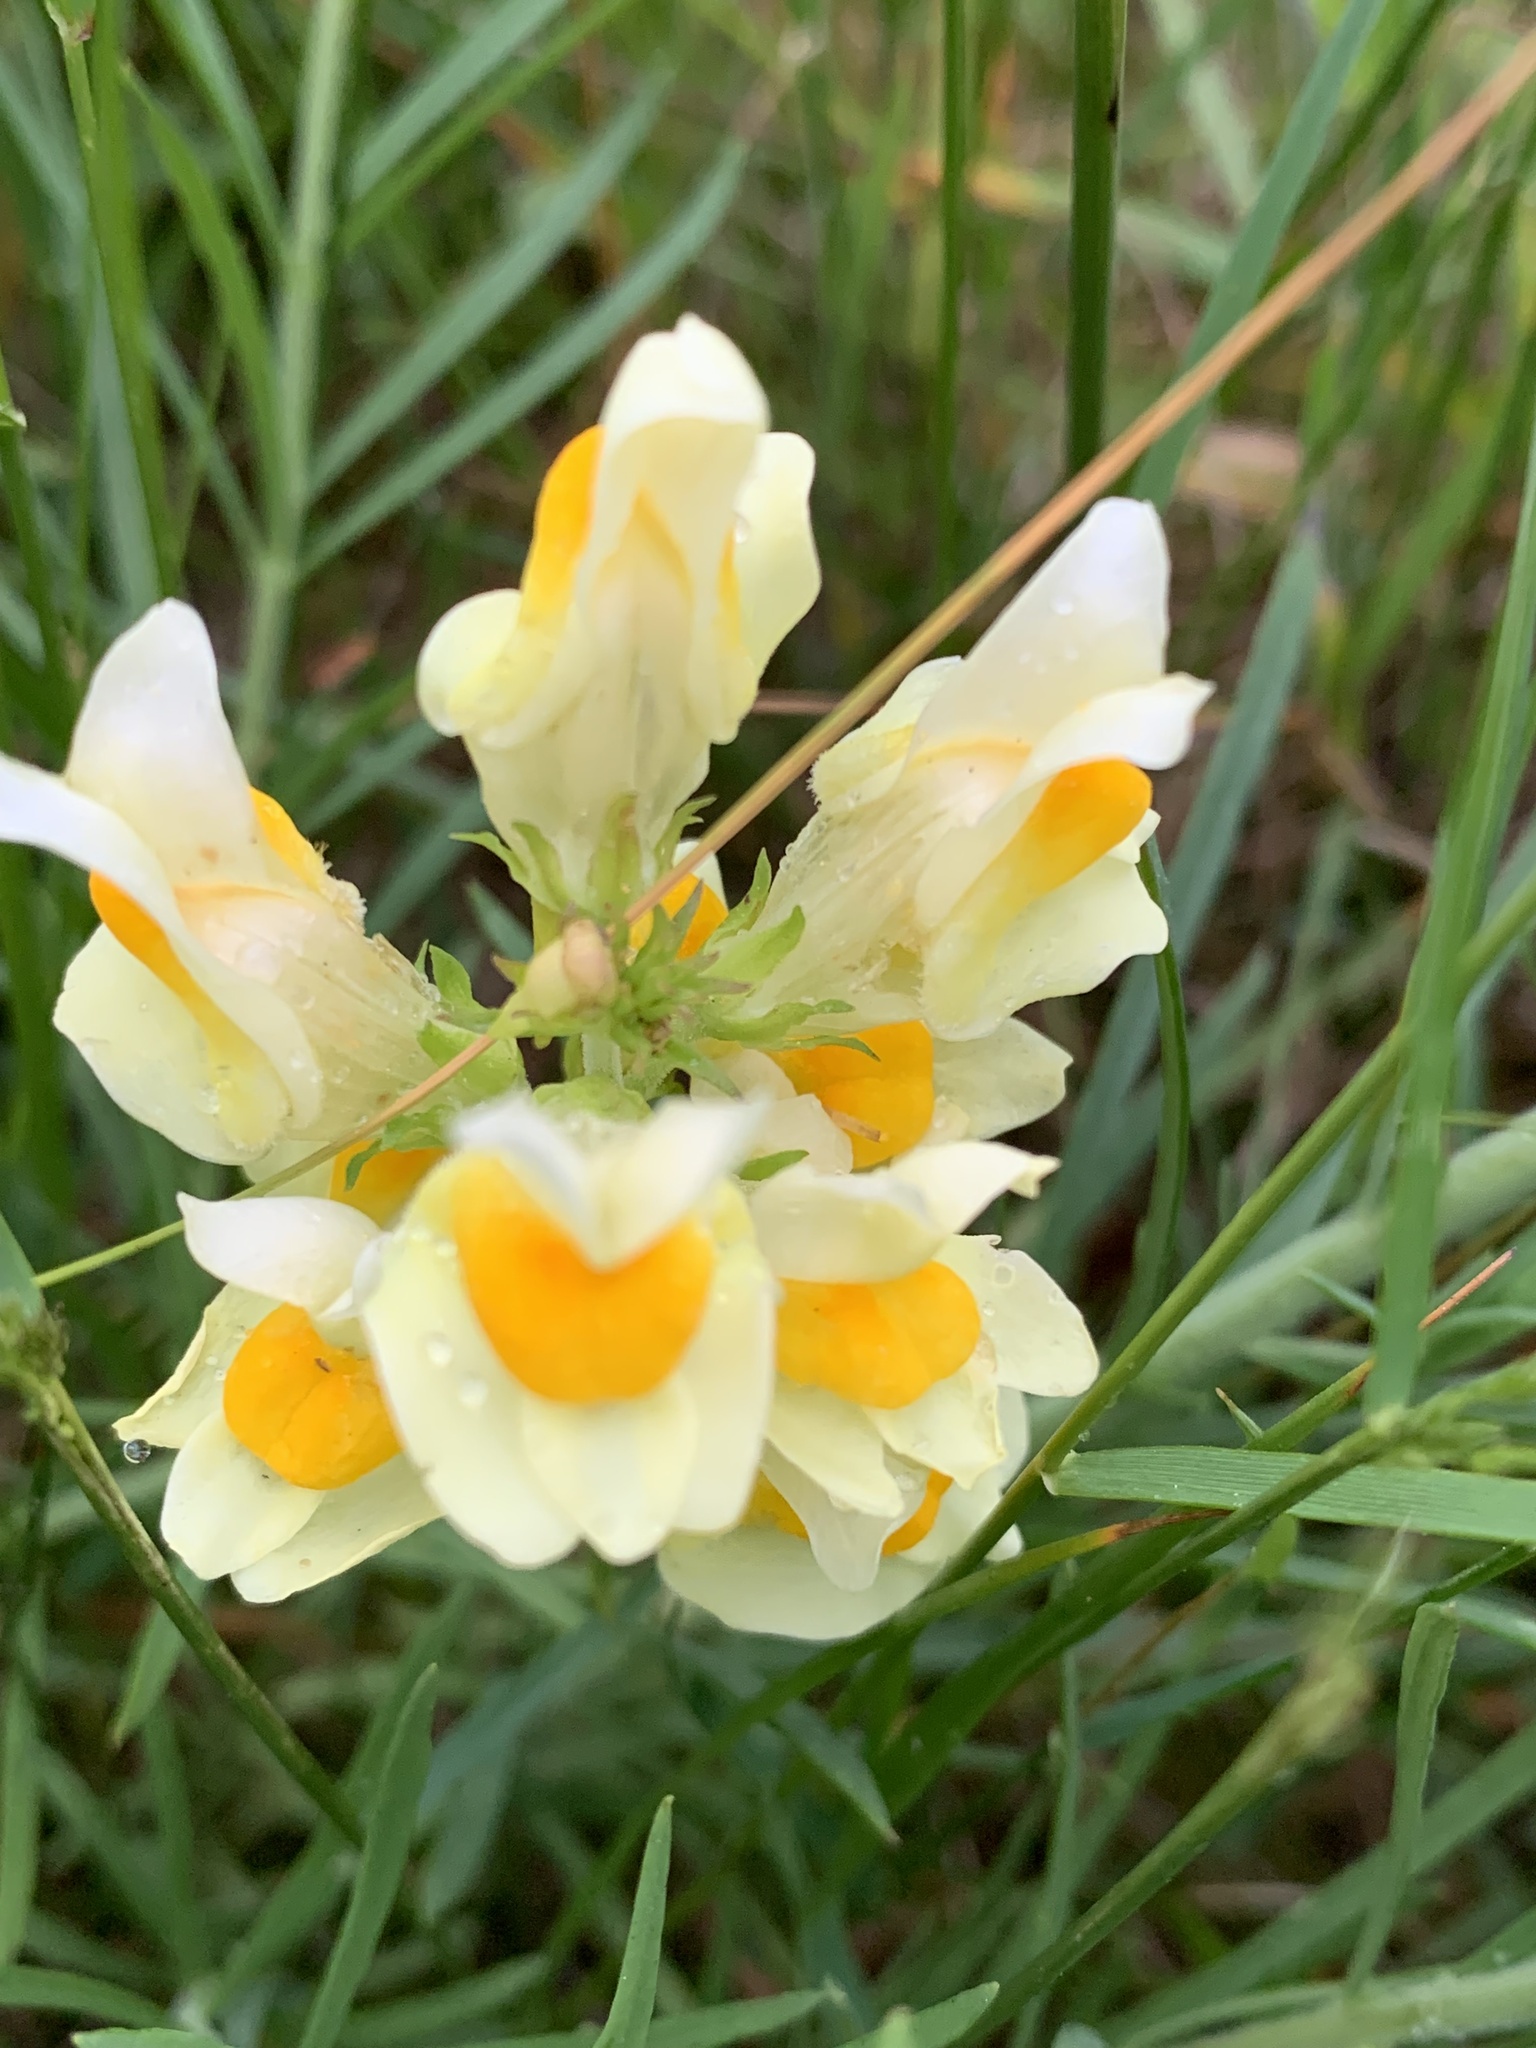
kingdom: Plantae
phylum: Tracheophyta
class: Magnoliopsida
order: Lamiales
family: Plantaginaceae
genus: Linaria
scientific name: Linaria vulgaris
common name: Butter and eggs
